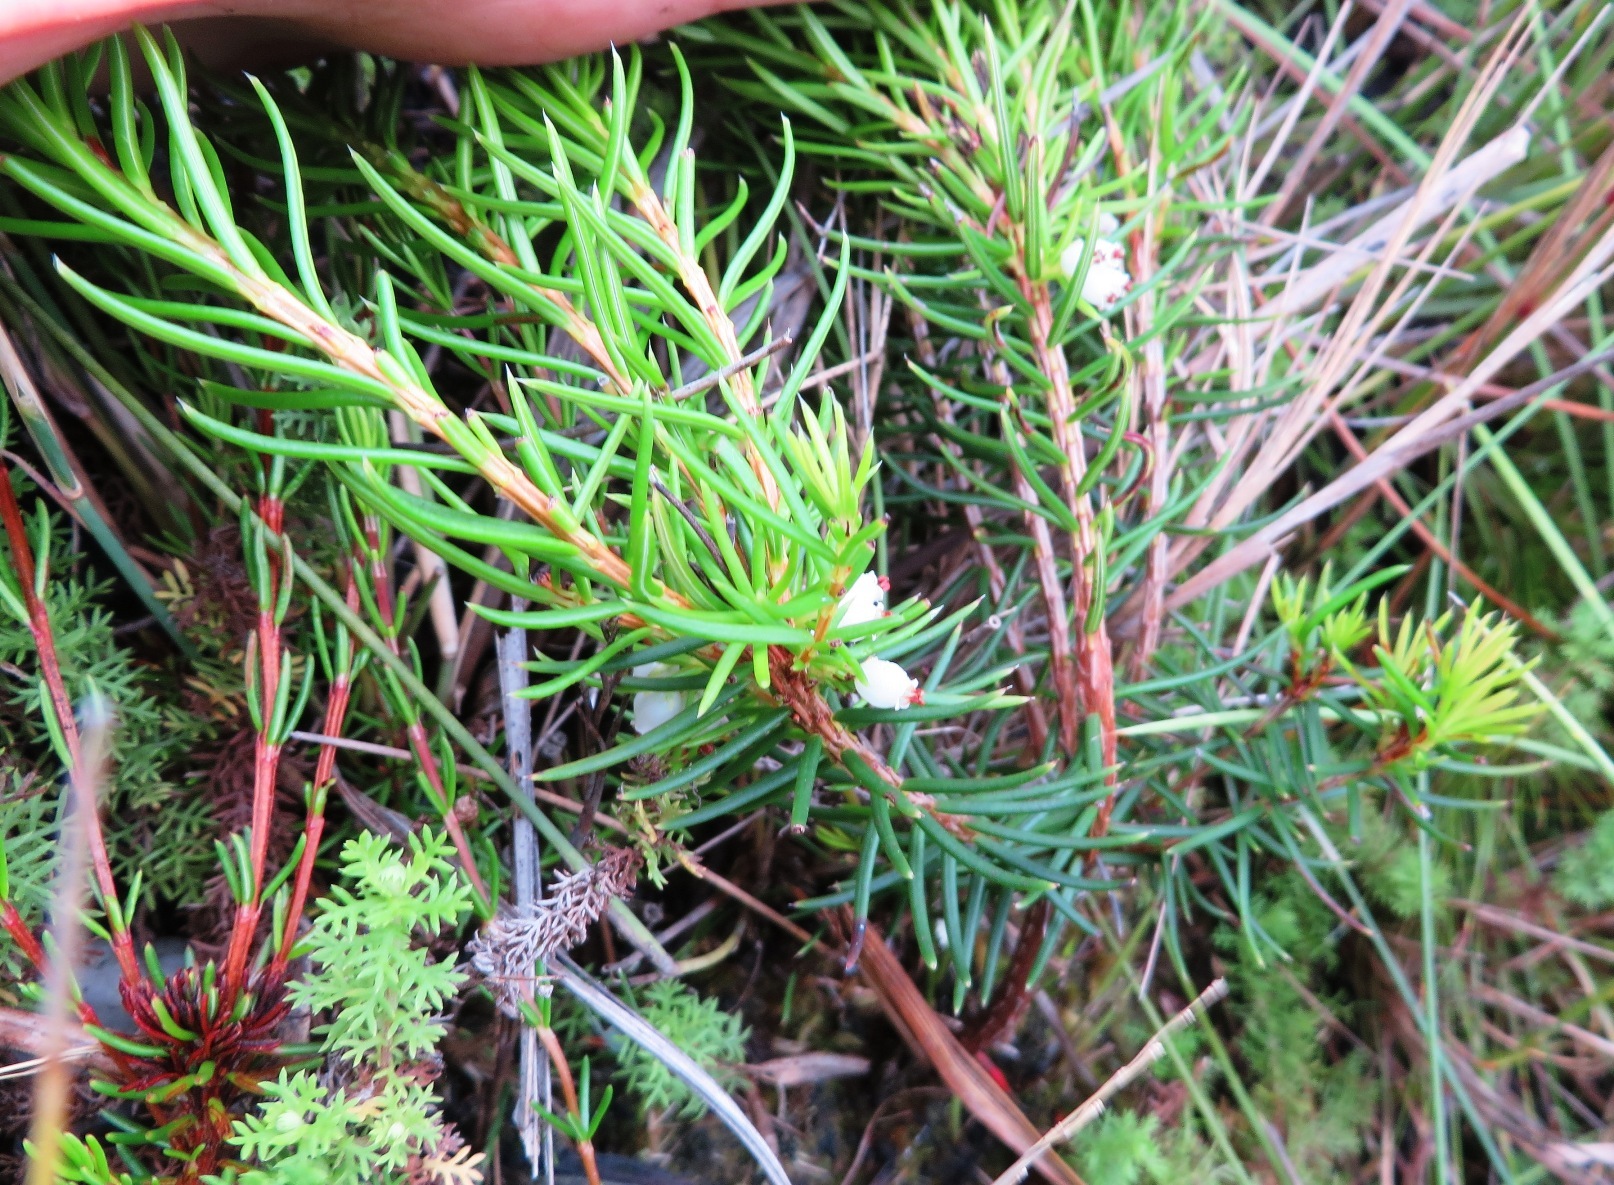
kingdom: Plantae
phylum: Tracheophyta
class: Magnoliopsida
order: Ericales
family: Ericaceae
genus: Erica
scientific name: Erica conferta
